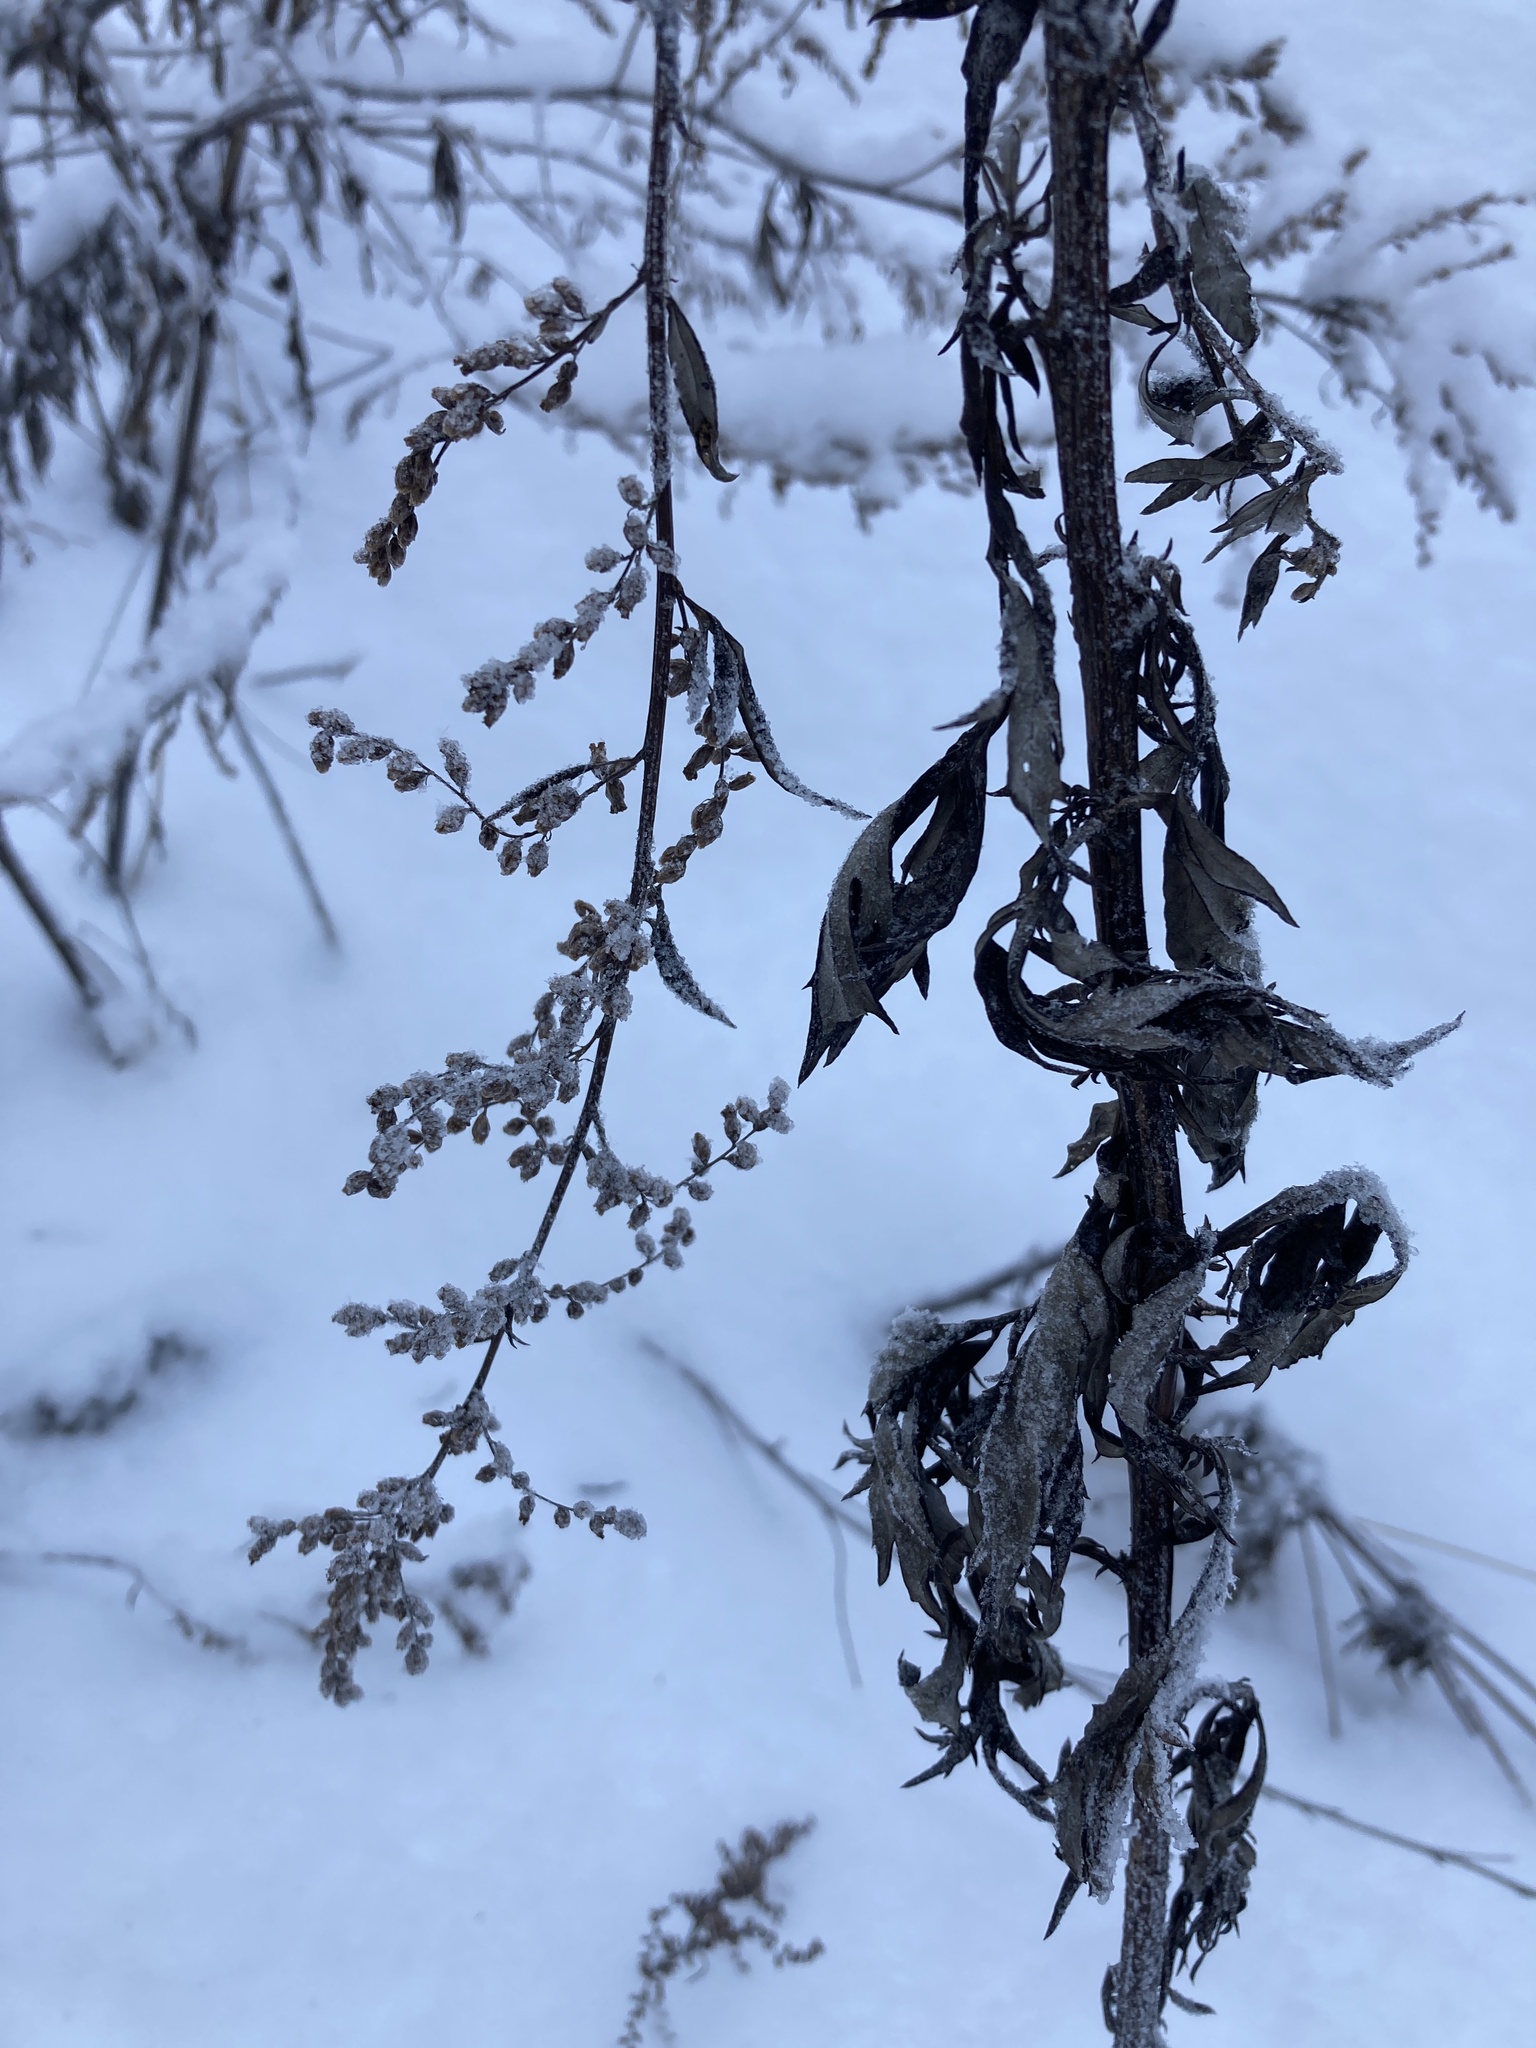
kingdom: Plantae
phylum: Tracheophyta
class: Magnoliopsida
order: Asterales
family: Asteraceae
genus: Artemisia
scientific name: Artemisia vulgaris
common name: Mugwort
